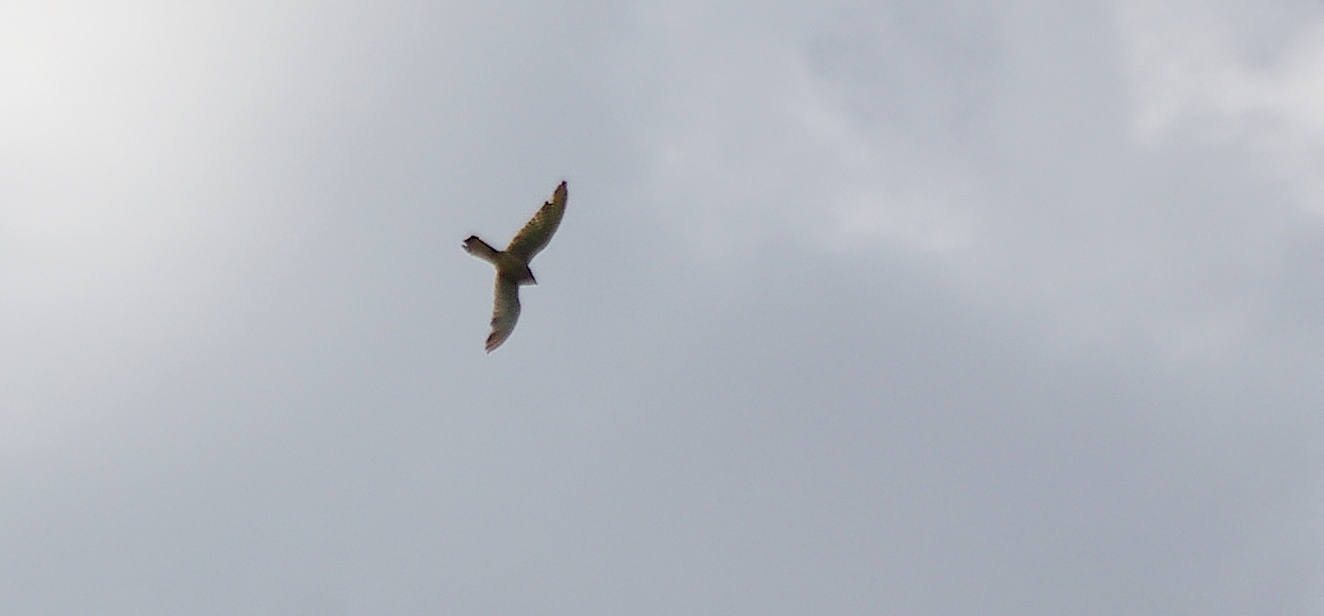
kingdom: Animalia
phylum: Chordata
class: Aves
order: Falconiformes
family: Falconidae
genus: Falco
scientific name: Falco tinnunculus
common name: Common kestrel
